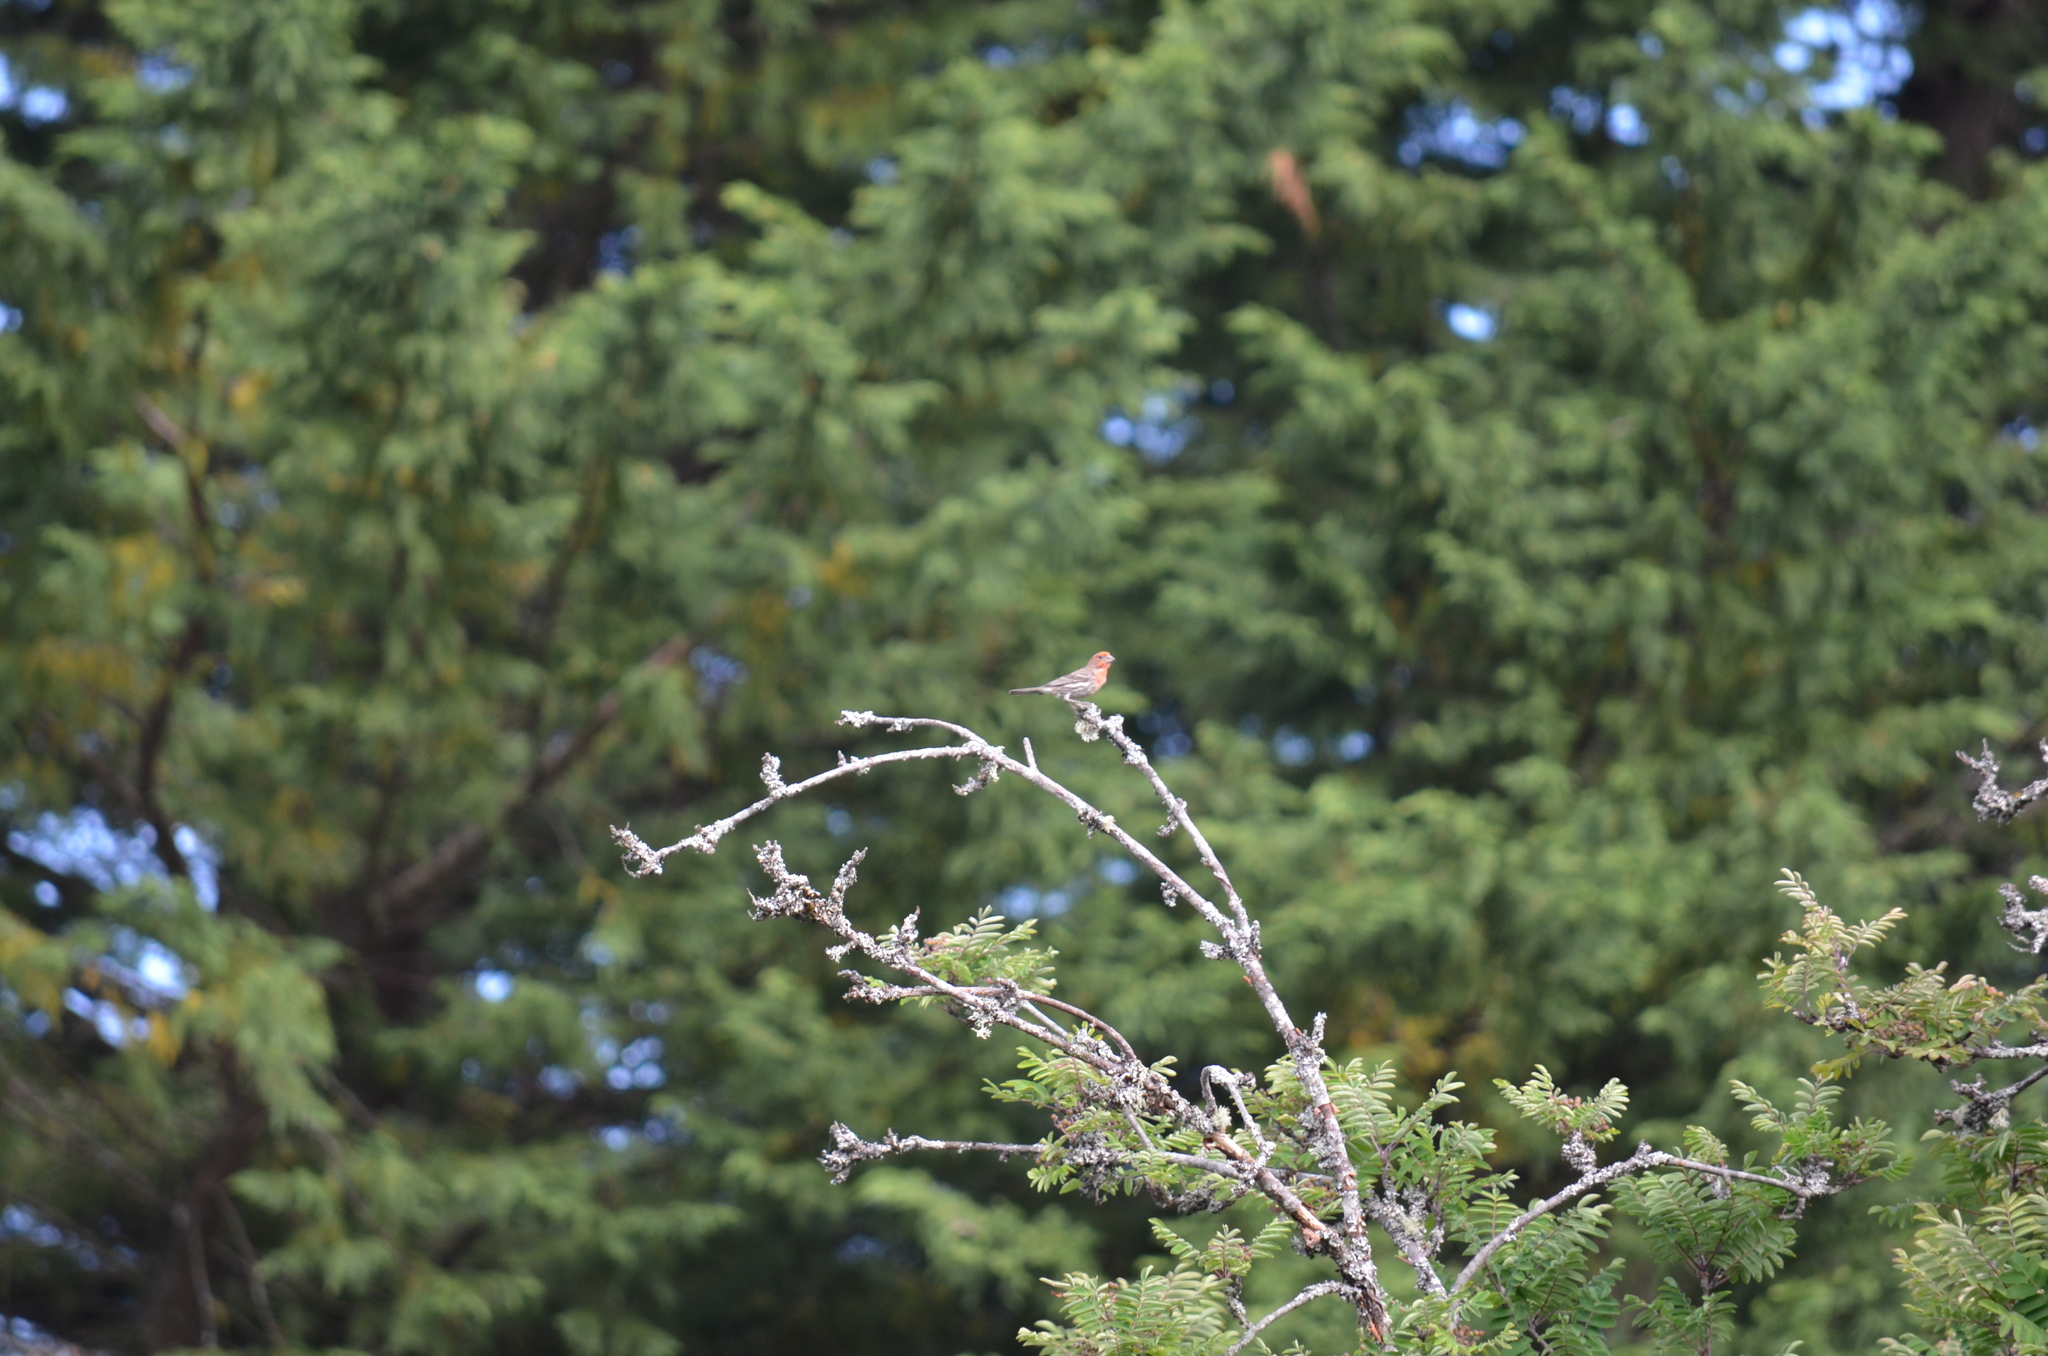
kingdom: Animalia
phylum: Chordata
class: Aves
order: Passeriformes
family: Fringillidae
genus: Haemorhous
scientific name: Haemorhous mexicanus
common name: House finch
